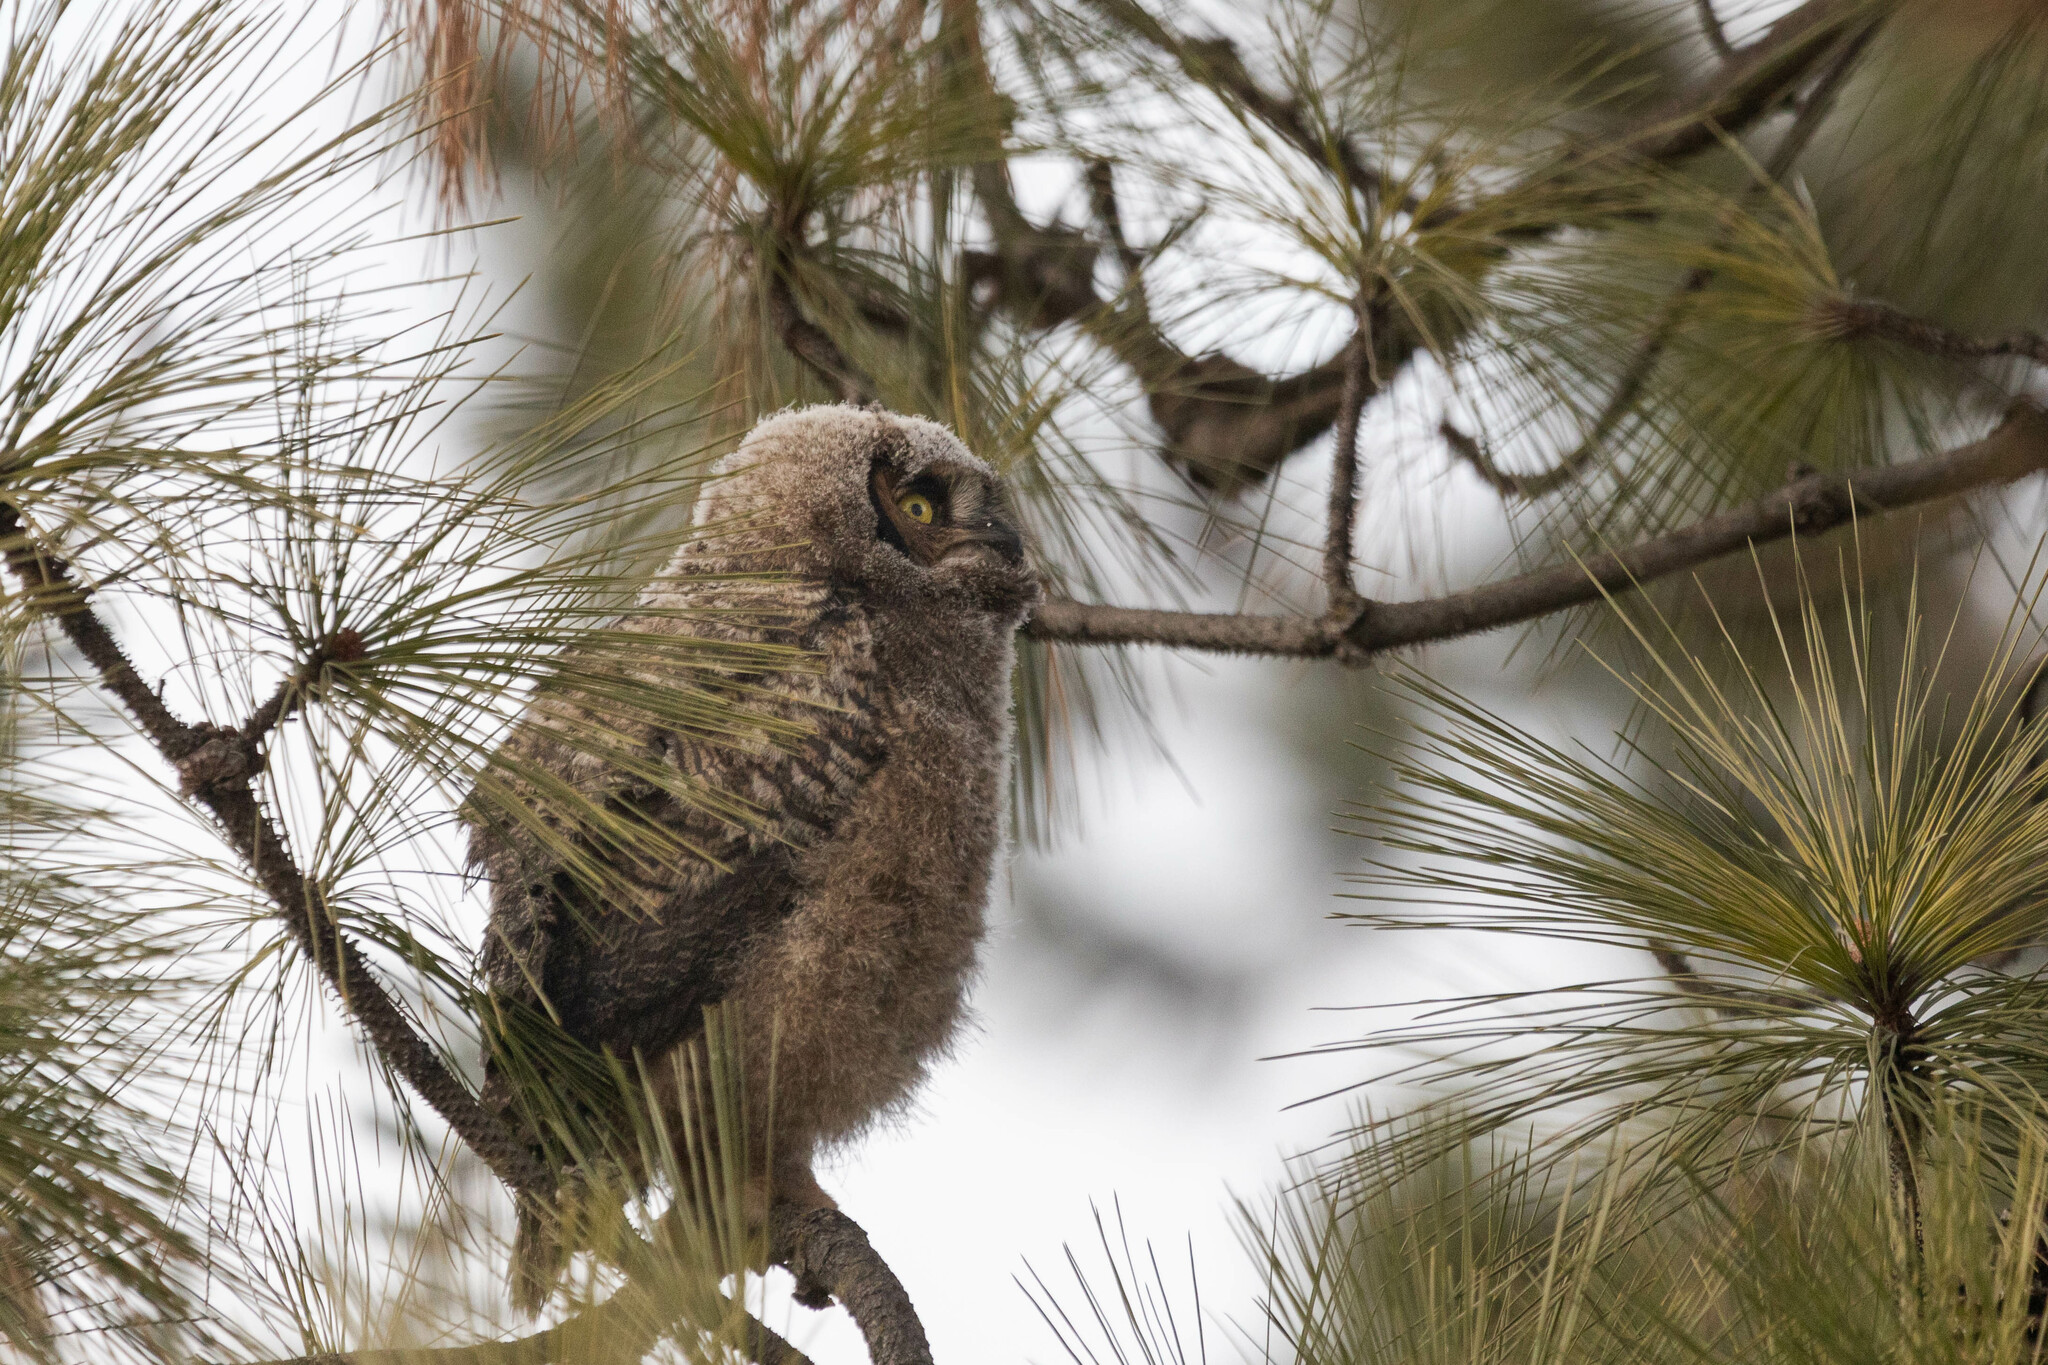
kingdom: Animalia
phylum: Chordata
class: Aves
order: Strigiformes
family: Strigidae
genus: Bubo
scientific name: Bubo virginianus
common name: Great horned owl
